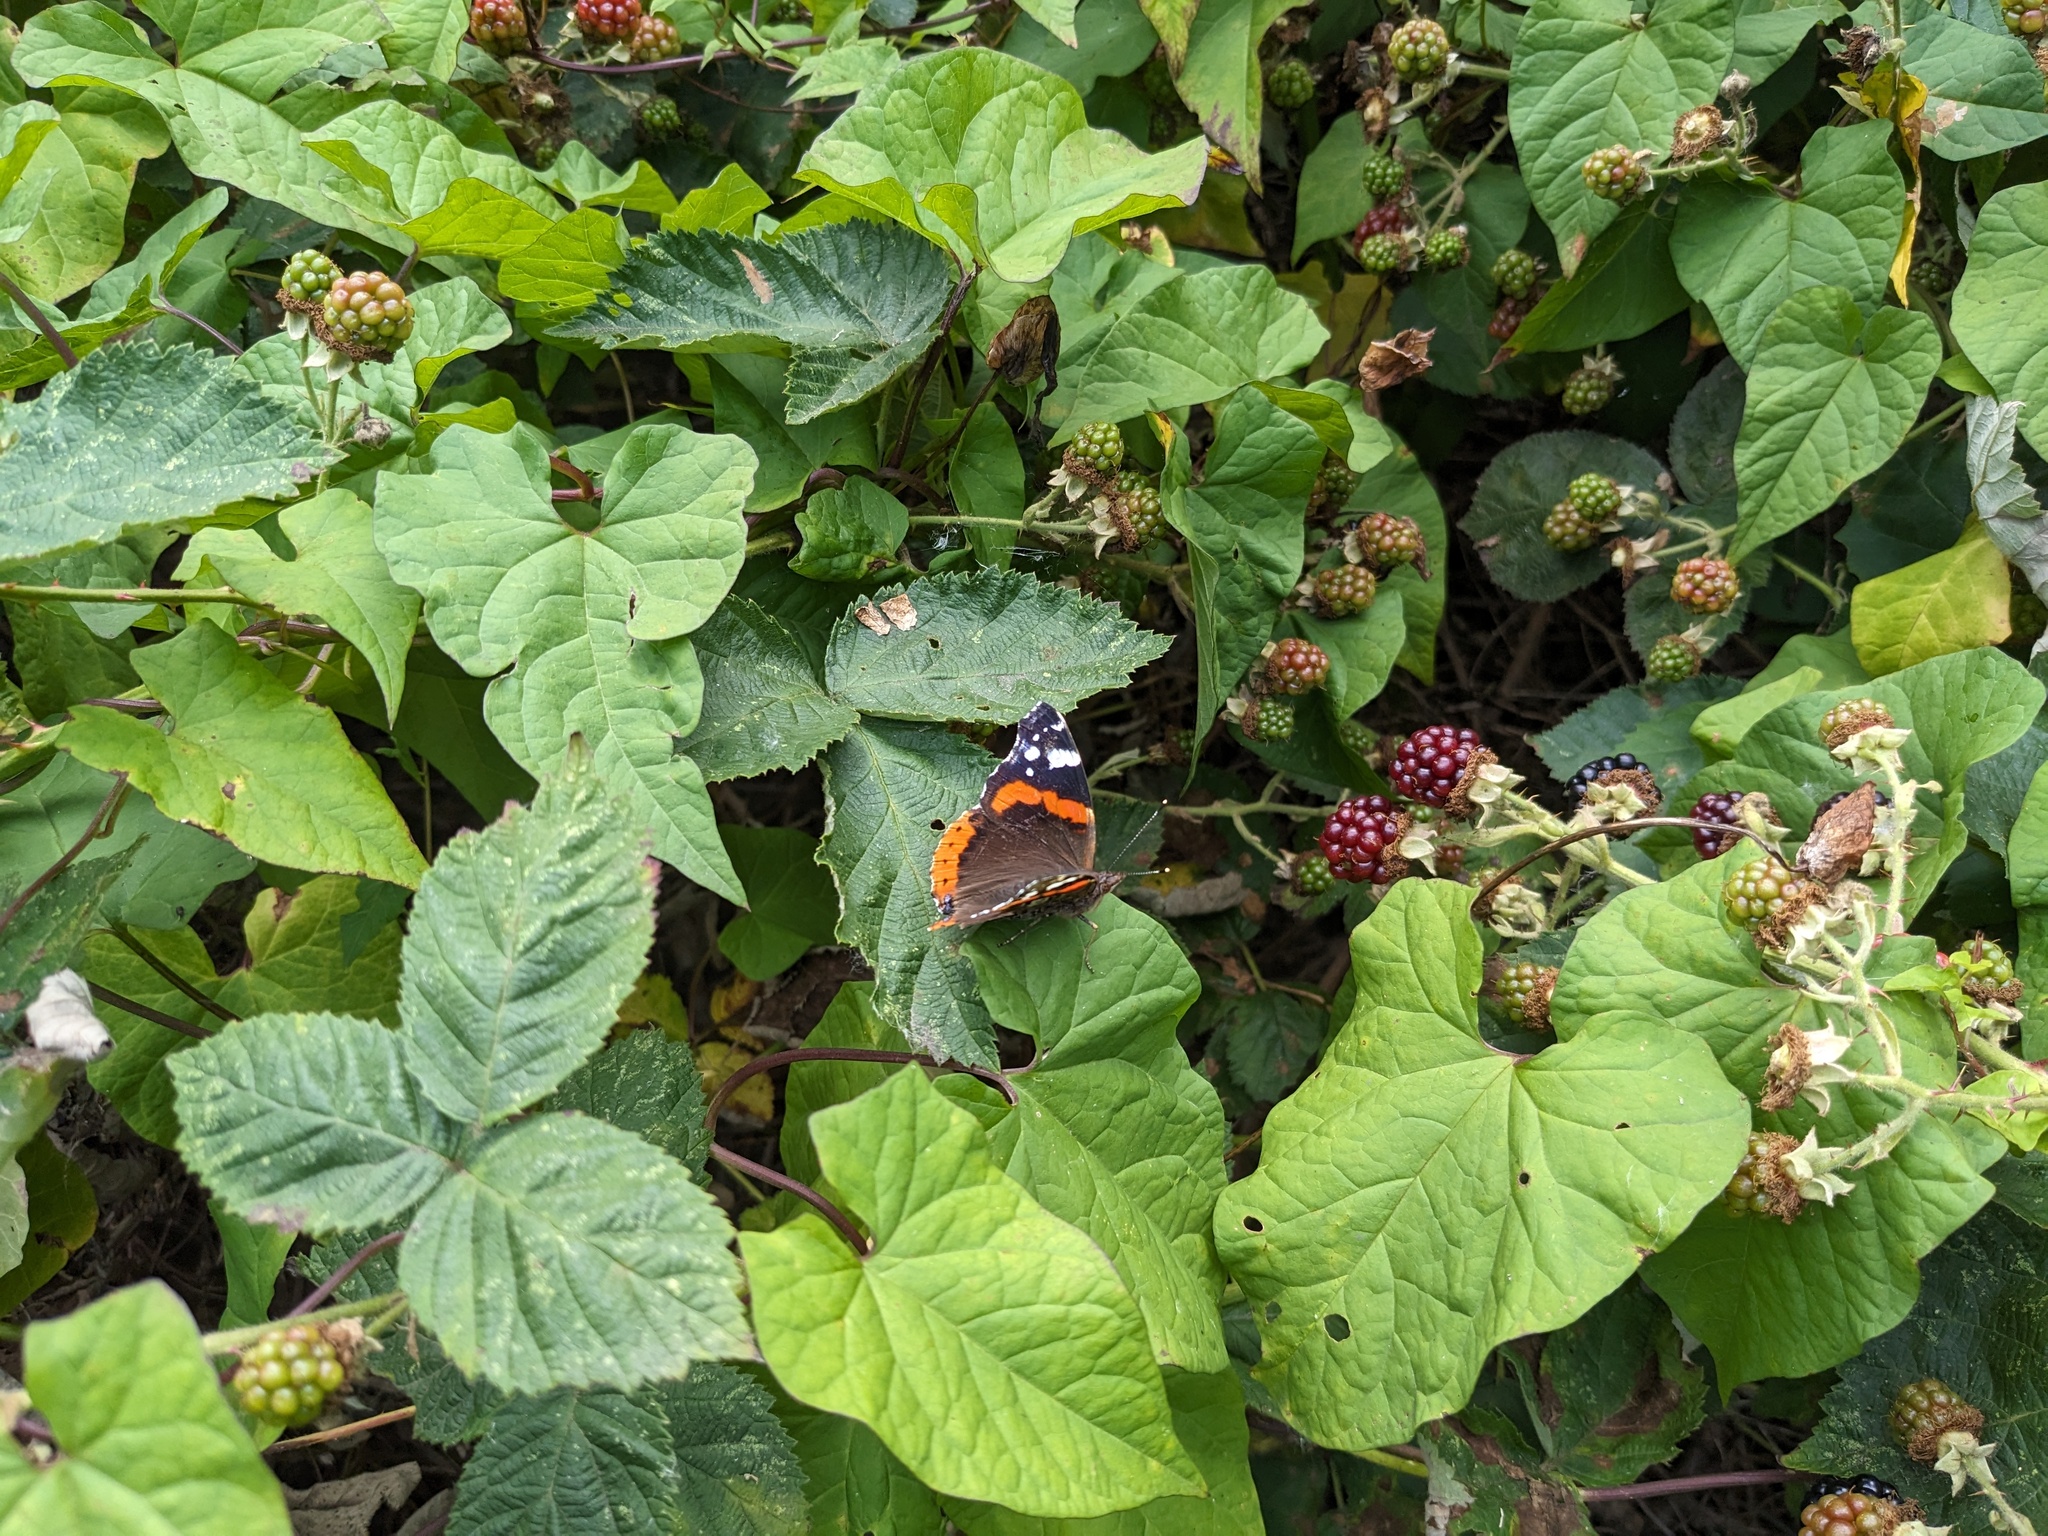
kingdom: Animalia
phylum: Arthropoda
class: Insecta
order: Lepidoptera
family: Nymphalidae
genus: Vanessa
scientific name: Vanessa atalanta
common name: Red admiral
